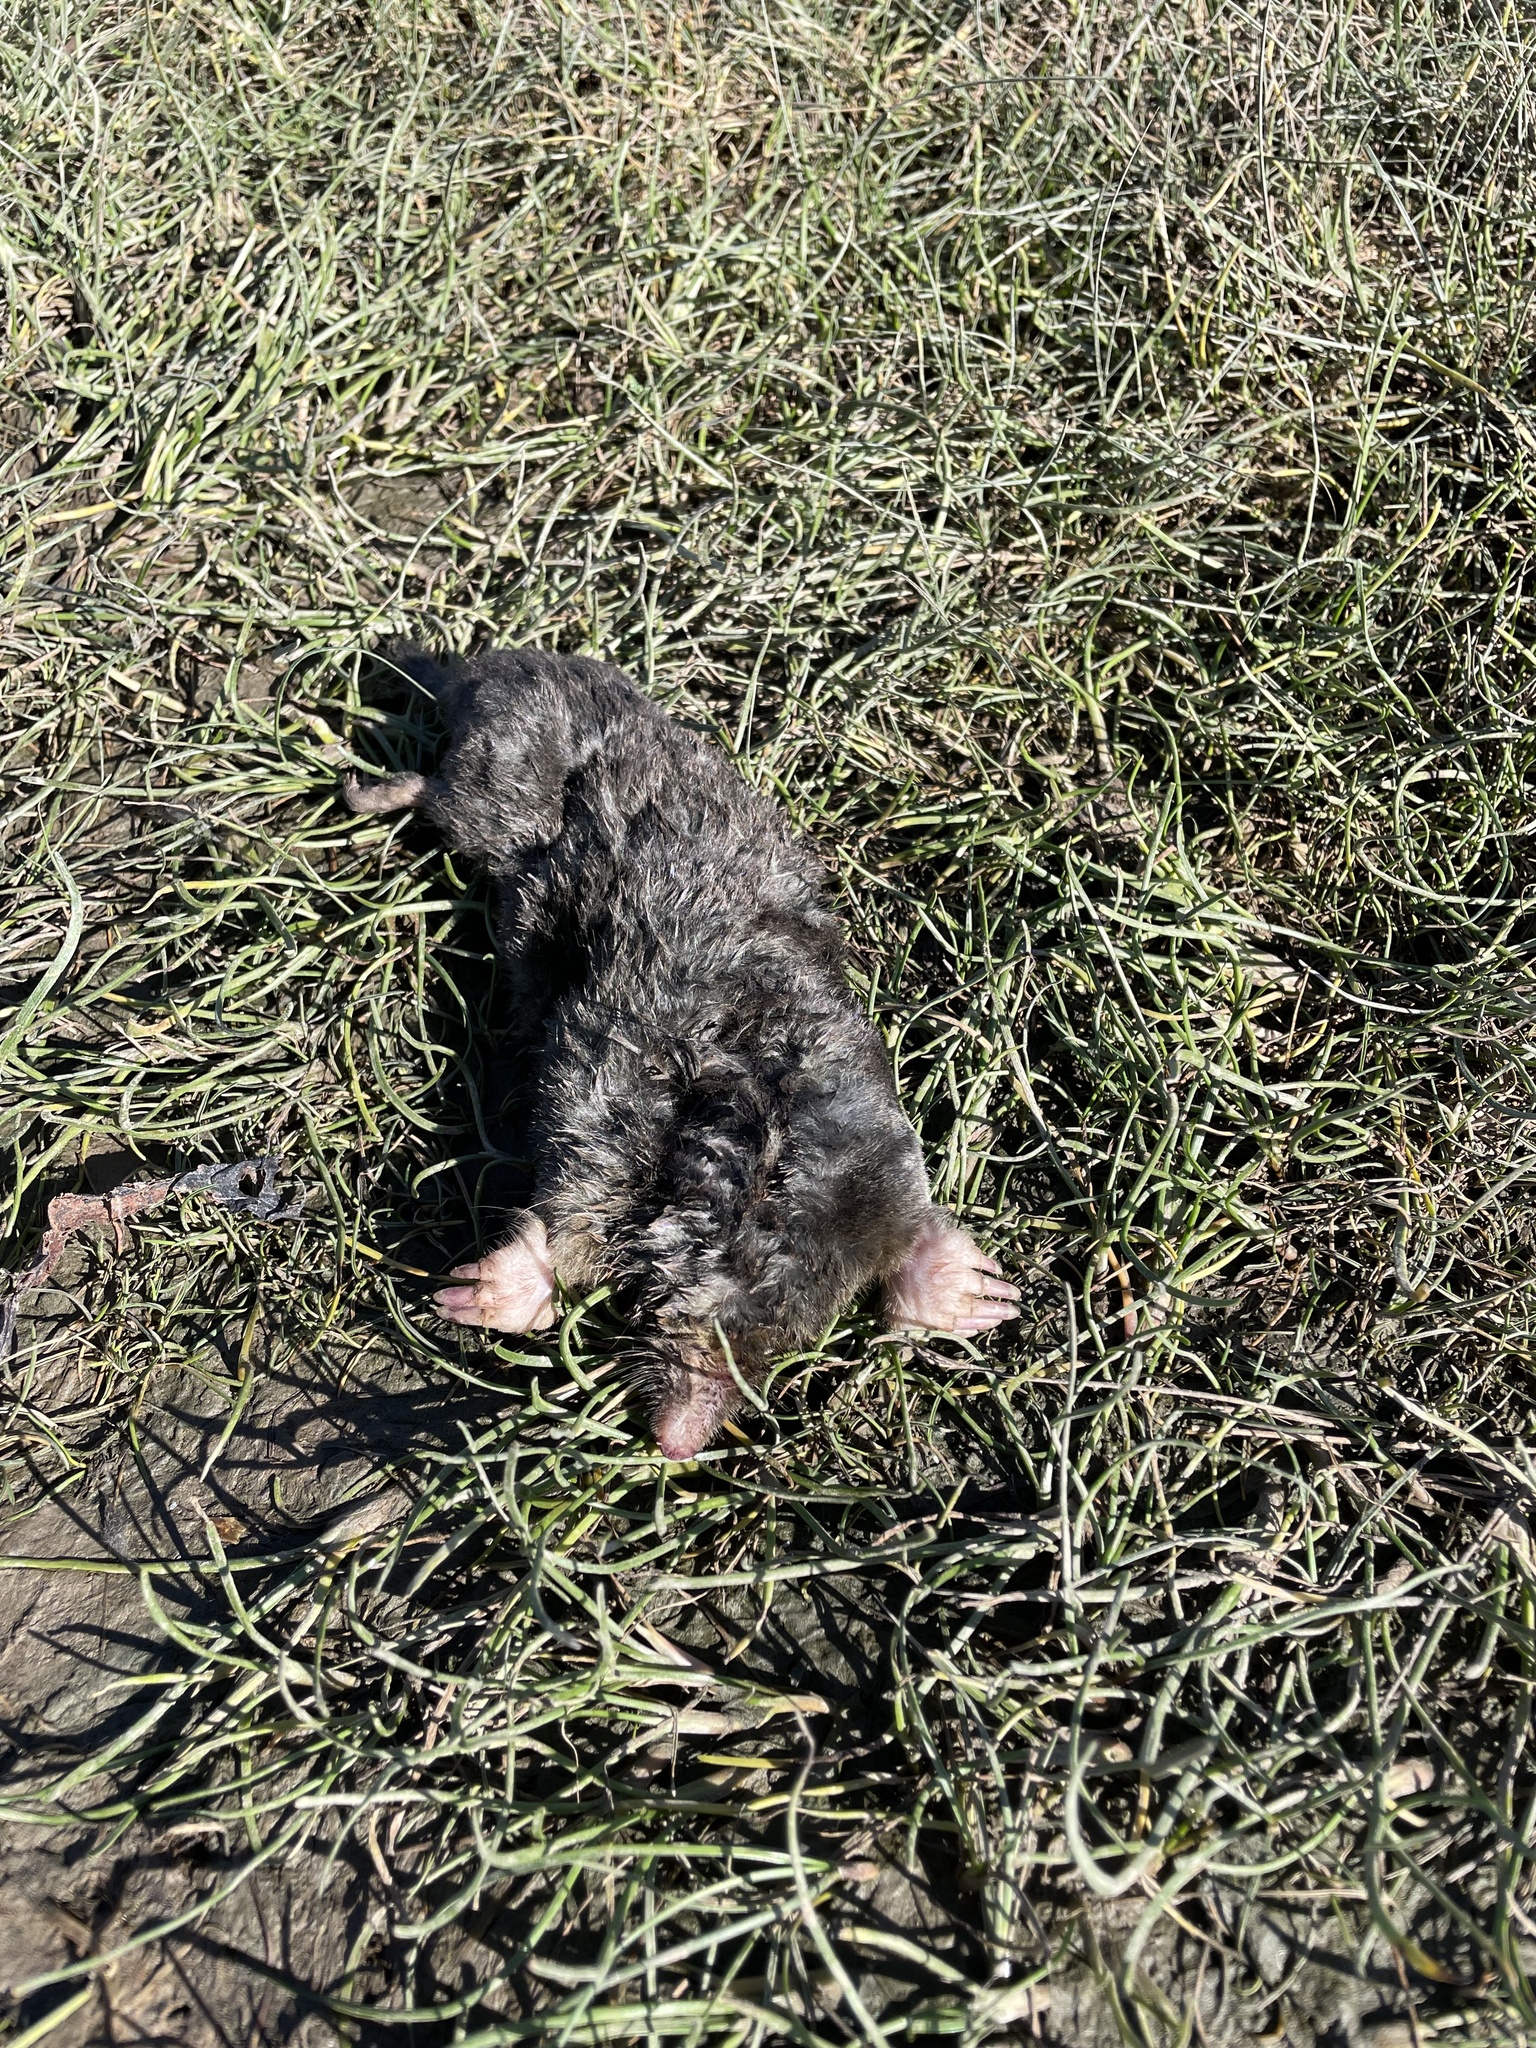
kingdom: Animalia
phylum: Chordata
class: Mammalia
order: Soricomorpha
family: Talpidae
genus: Talpa
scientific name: Talpa europaea
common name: European mole
